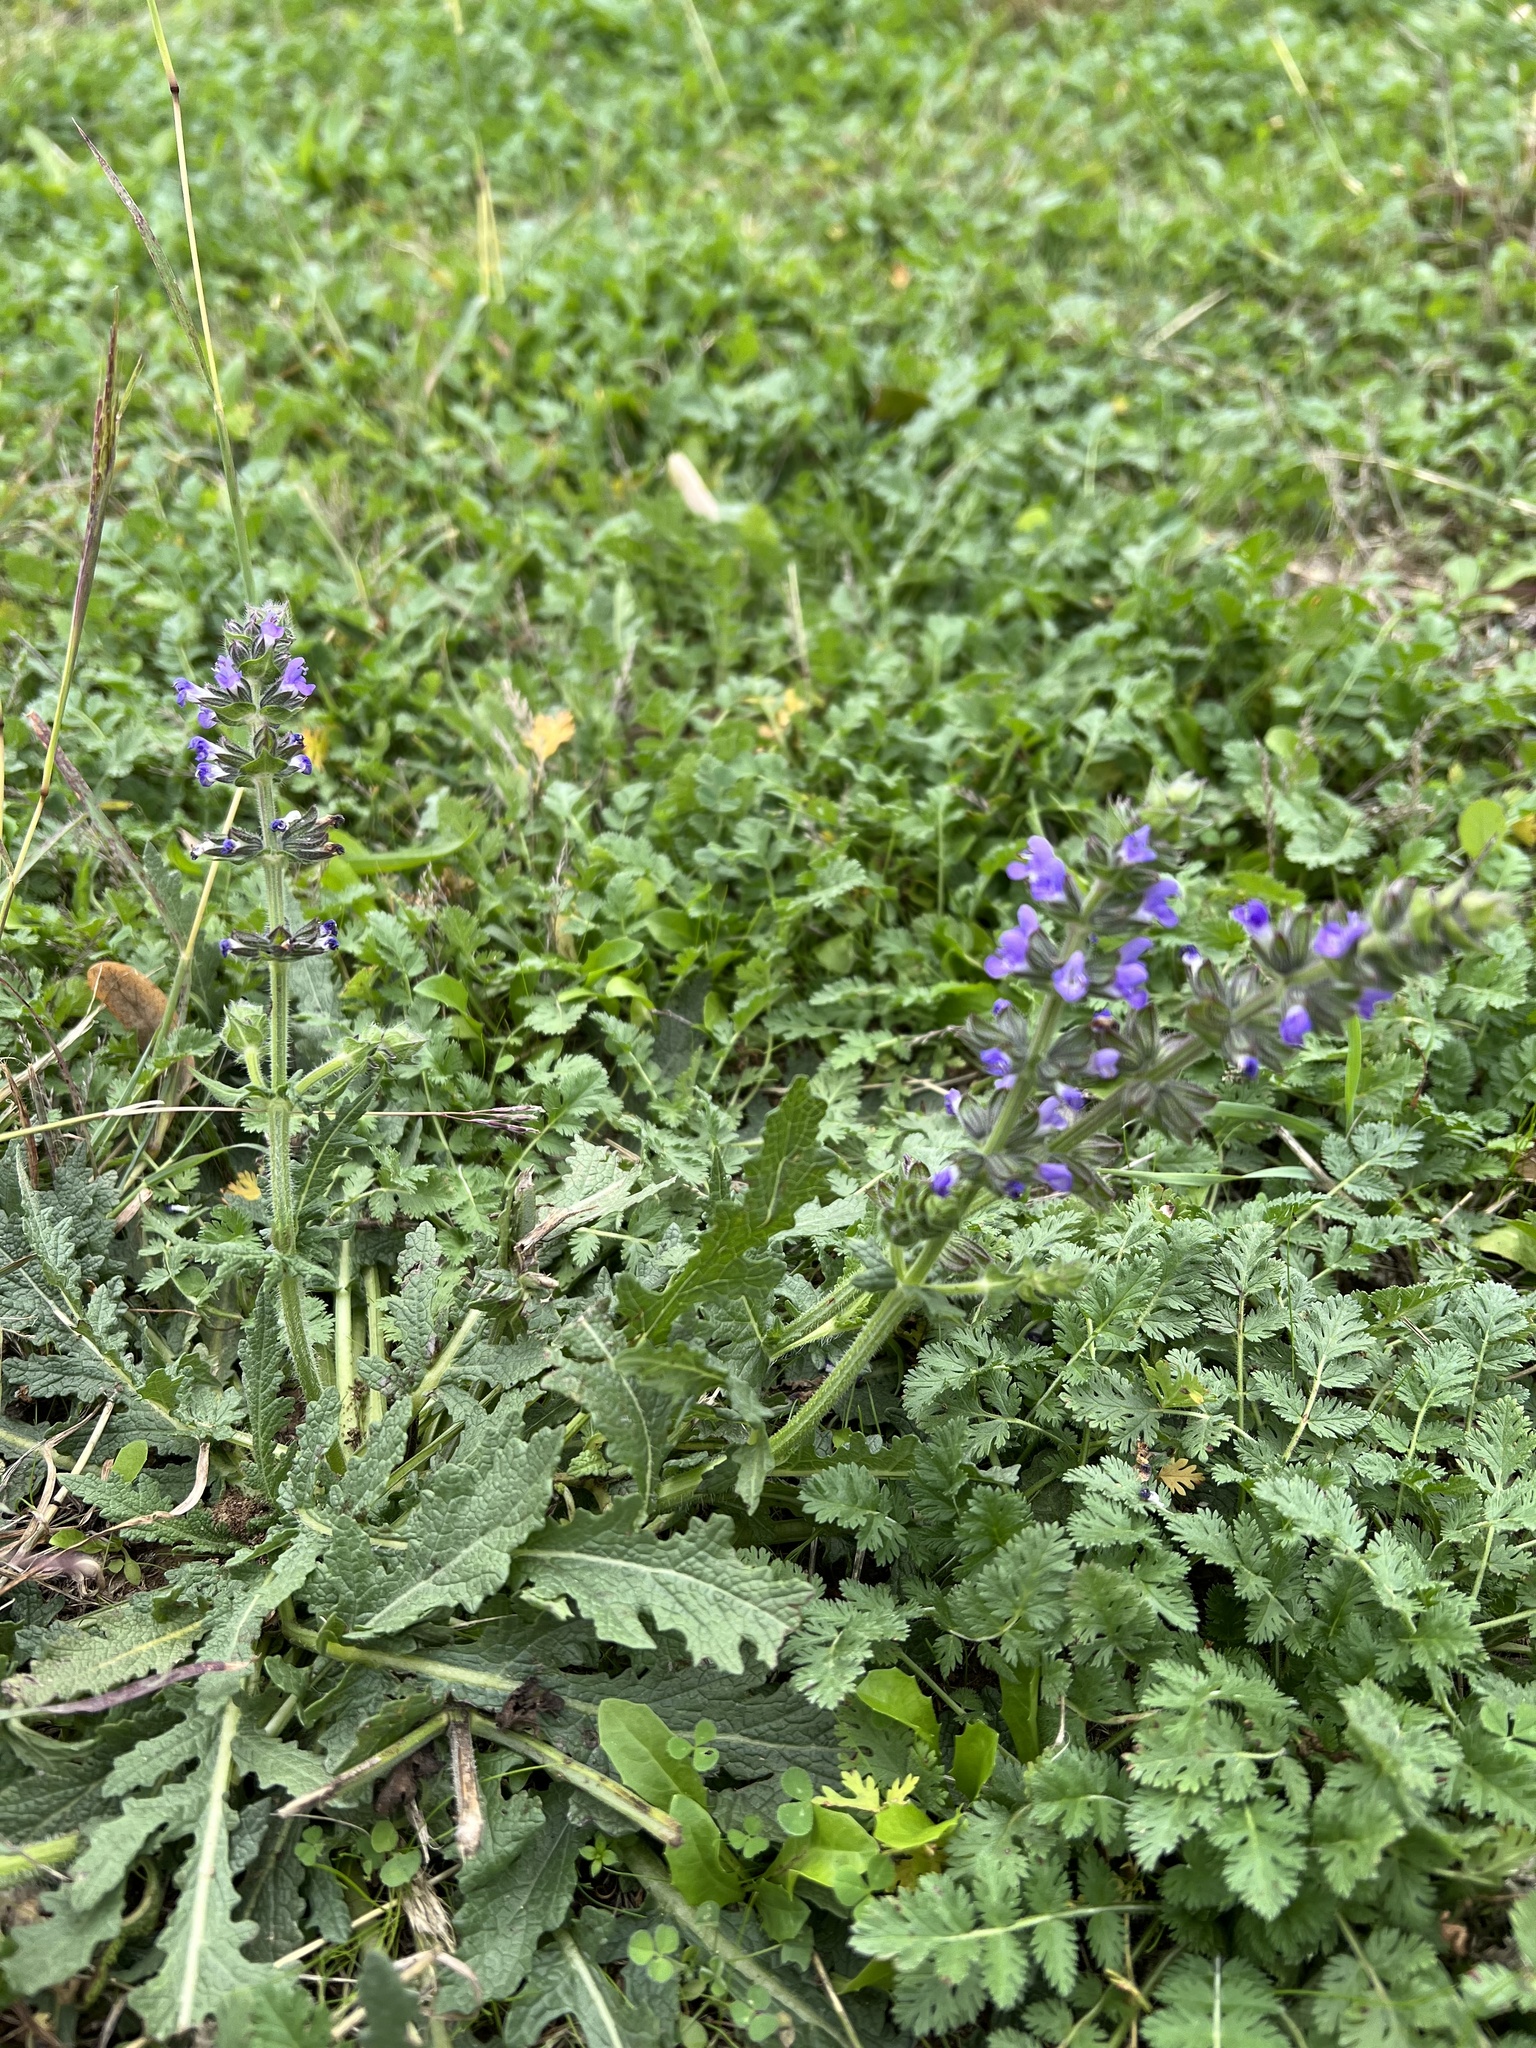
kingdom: Plantae
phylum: Tracheophyta
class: Magnoliopsida
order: Lamiales
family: Lamiaceae
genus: Salvia
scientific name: Salvia verbenaca
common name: Wild clary
